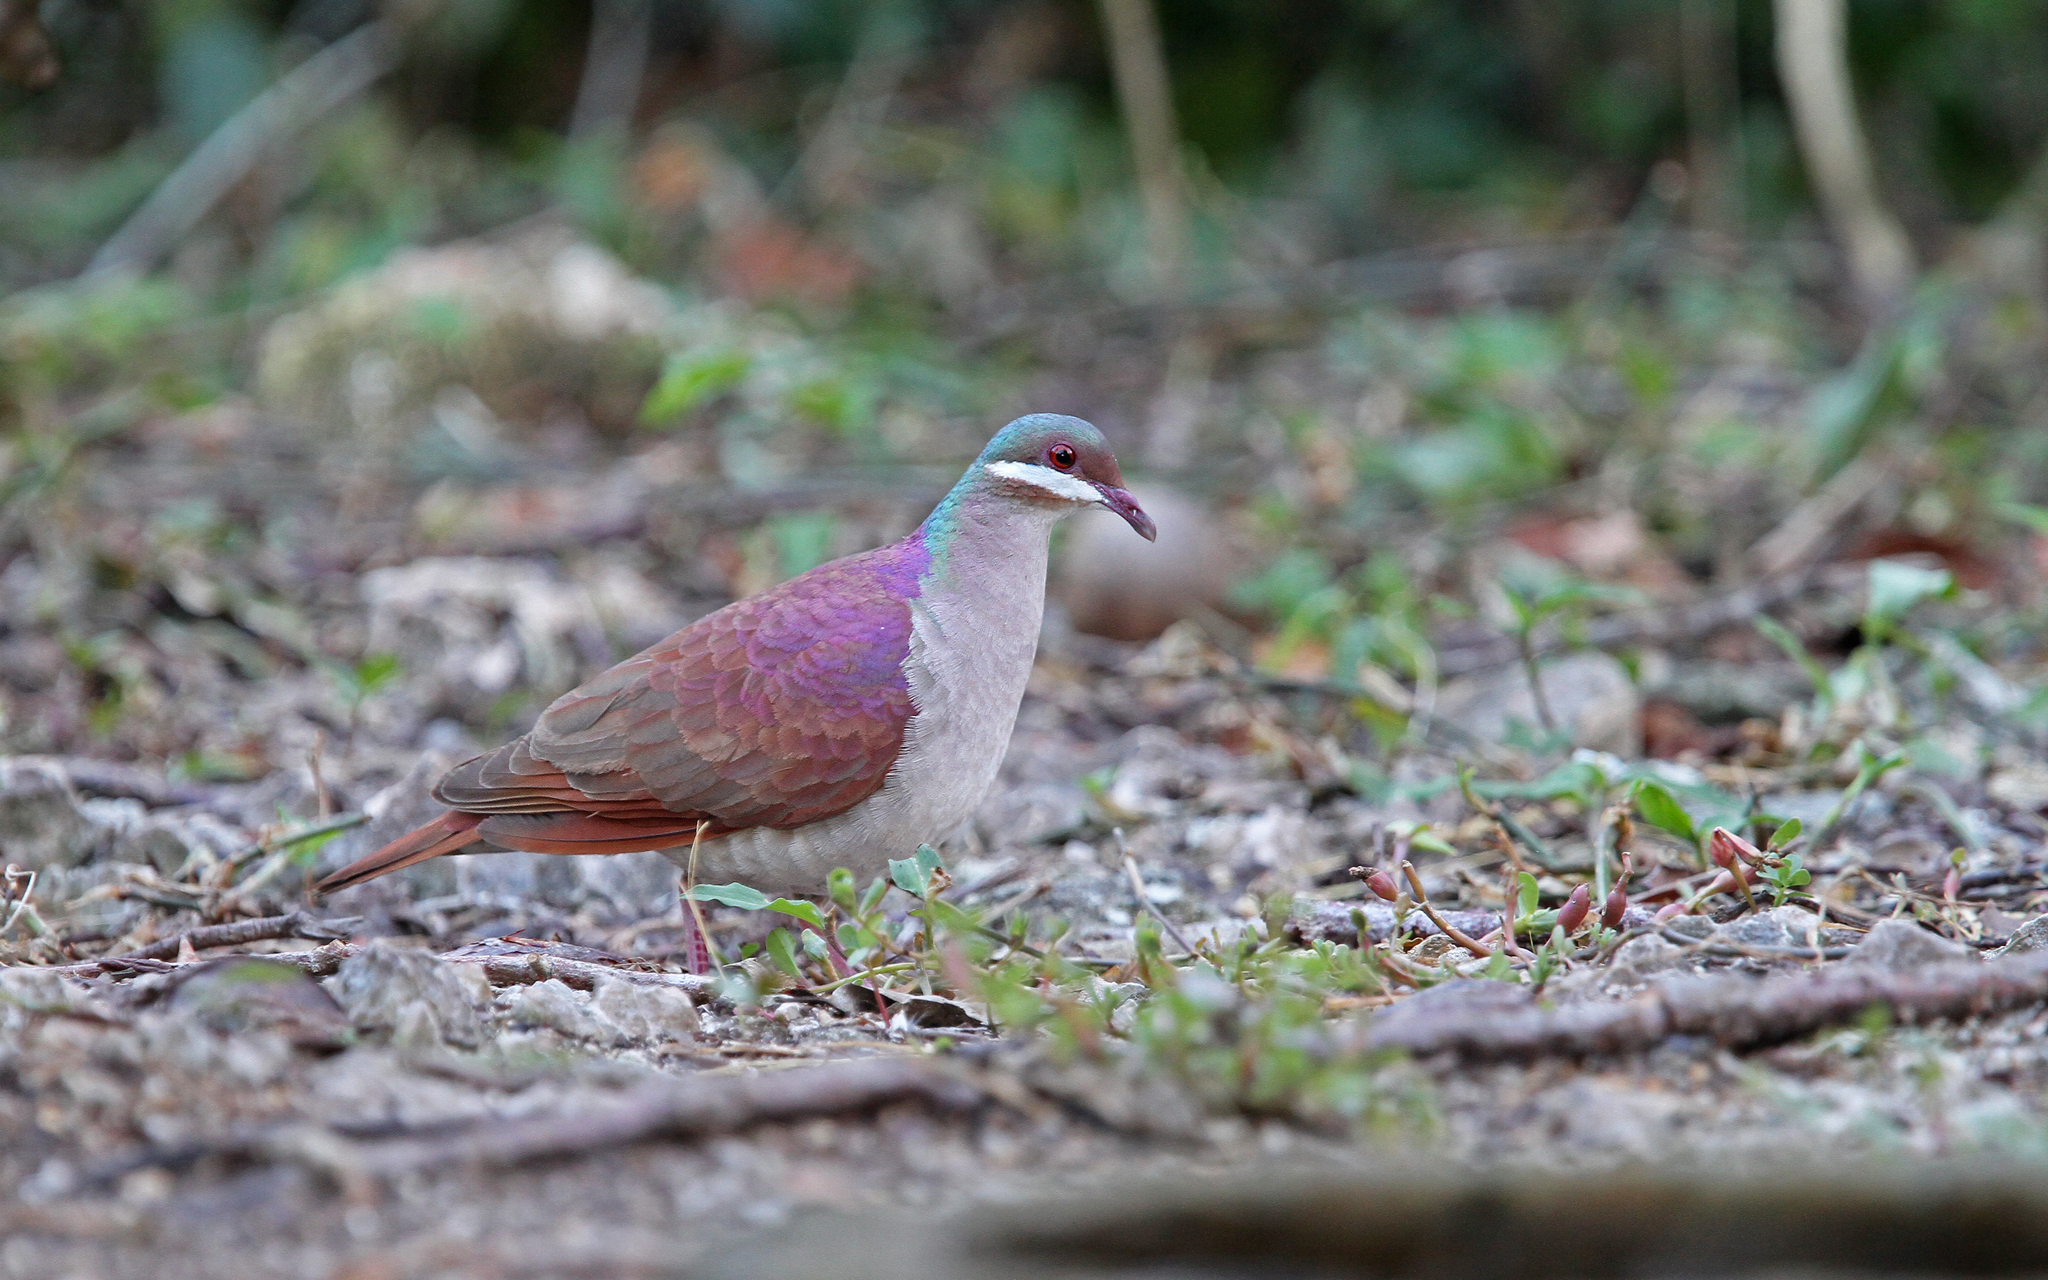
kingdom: Animalia
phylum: Chordata
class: Aves
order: Columbiformes
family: Columbidae
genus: Geotrygon
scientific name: Geotrygon chrysia
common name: Key west quail-dove
